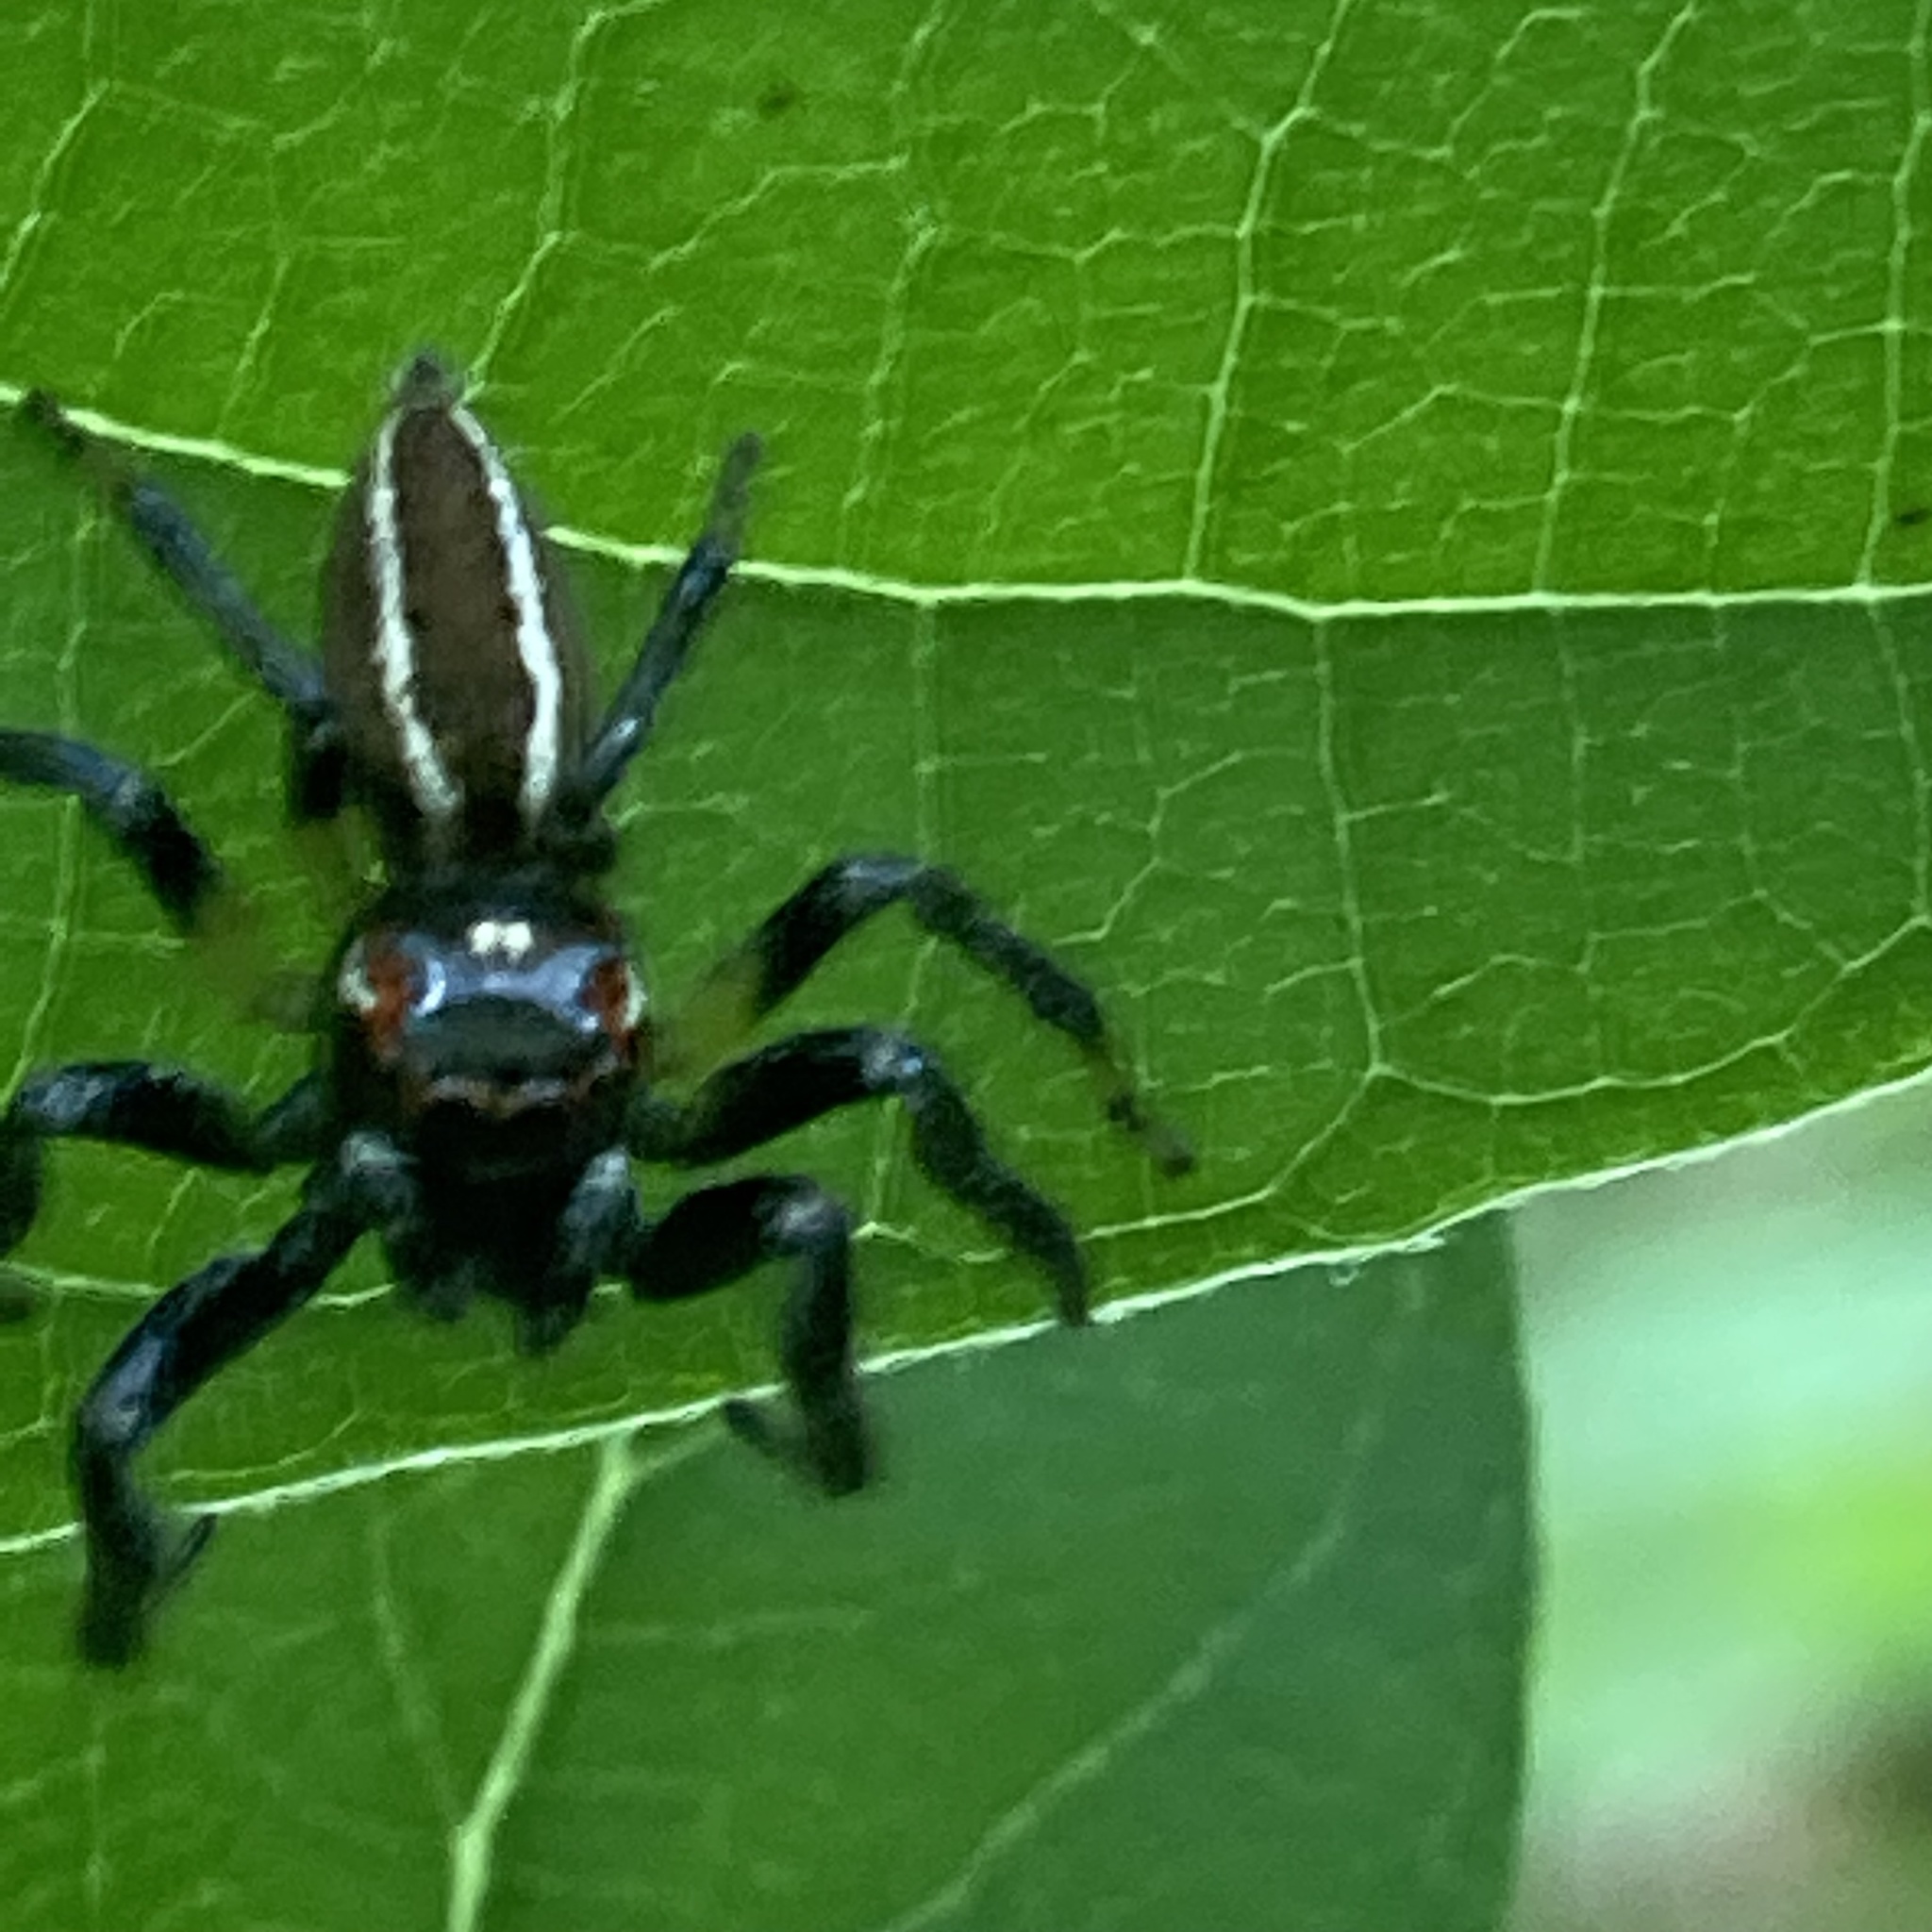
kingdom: Animalia
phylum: Arthropoda
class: Arachnida
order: Araneae
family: Salticidae
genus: Colonus
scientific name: Colonus sylvanus
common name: Jumping spiders
